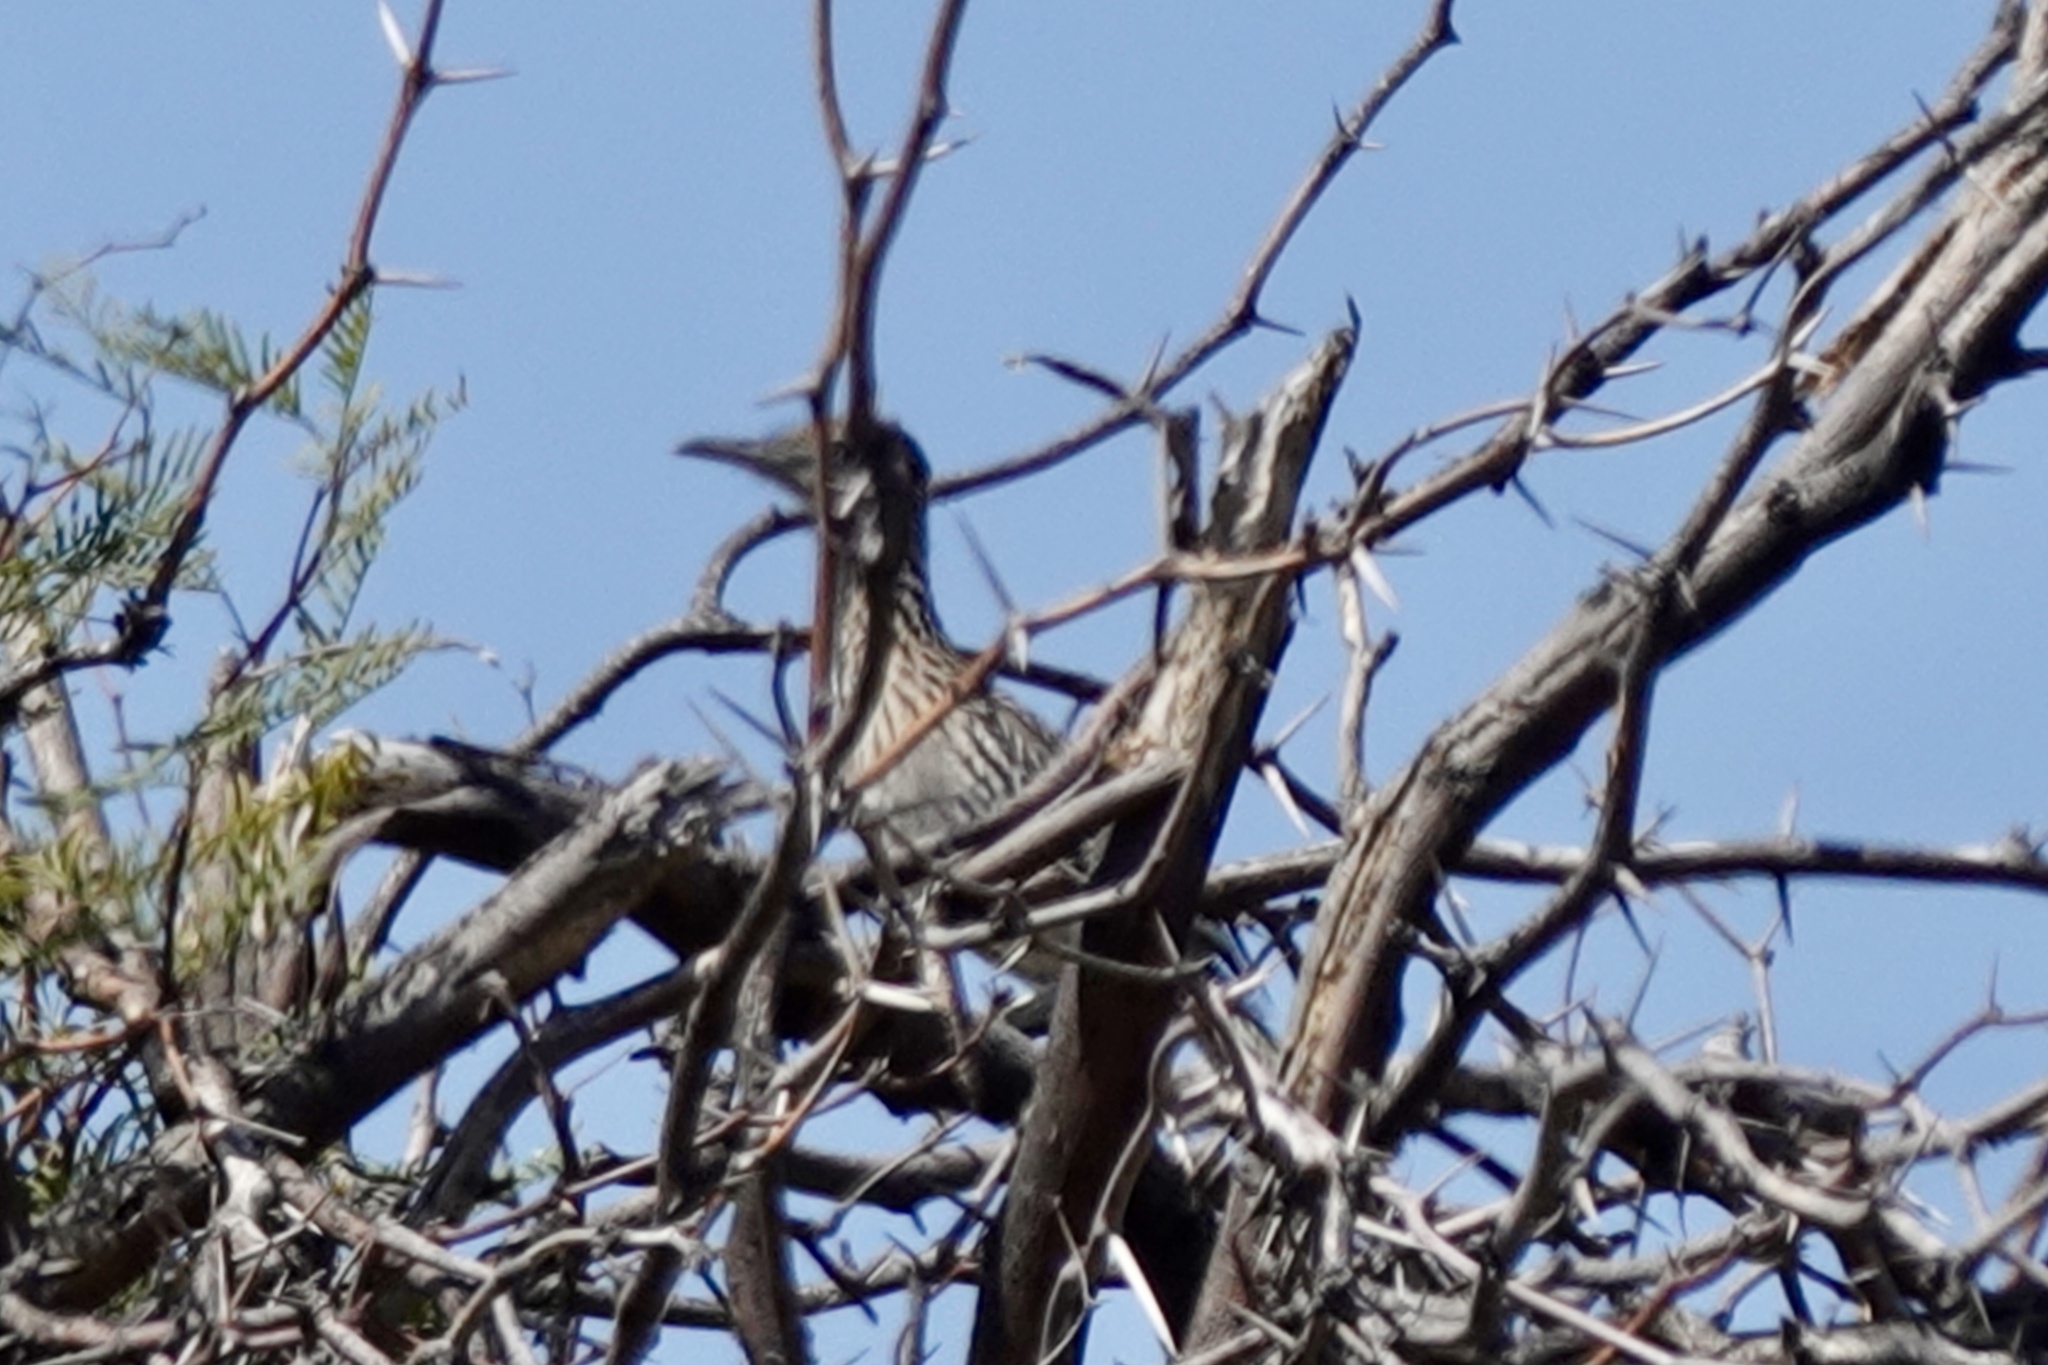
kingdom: Animalia
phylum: Chordata
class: Aves
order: Cuculiformes
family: Cuculidae
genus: Geococcyx
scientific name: Geococcyx californianus
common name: Greater roadrunner
